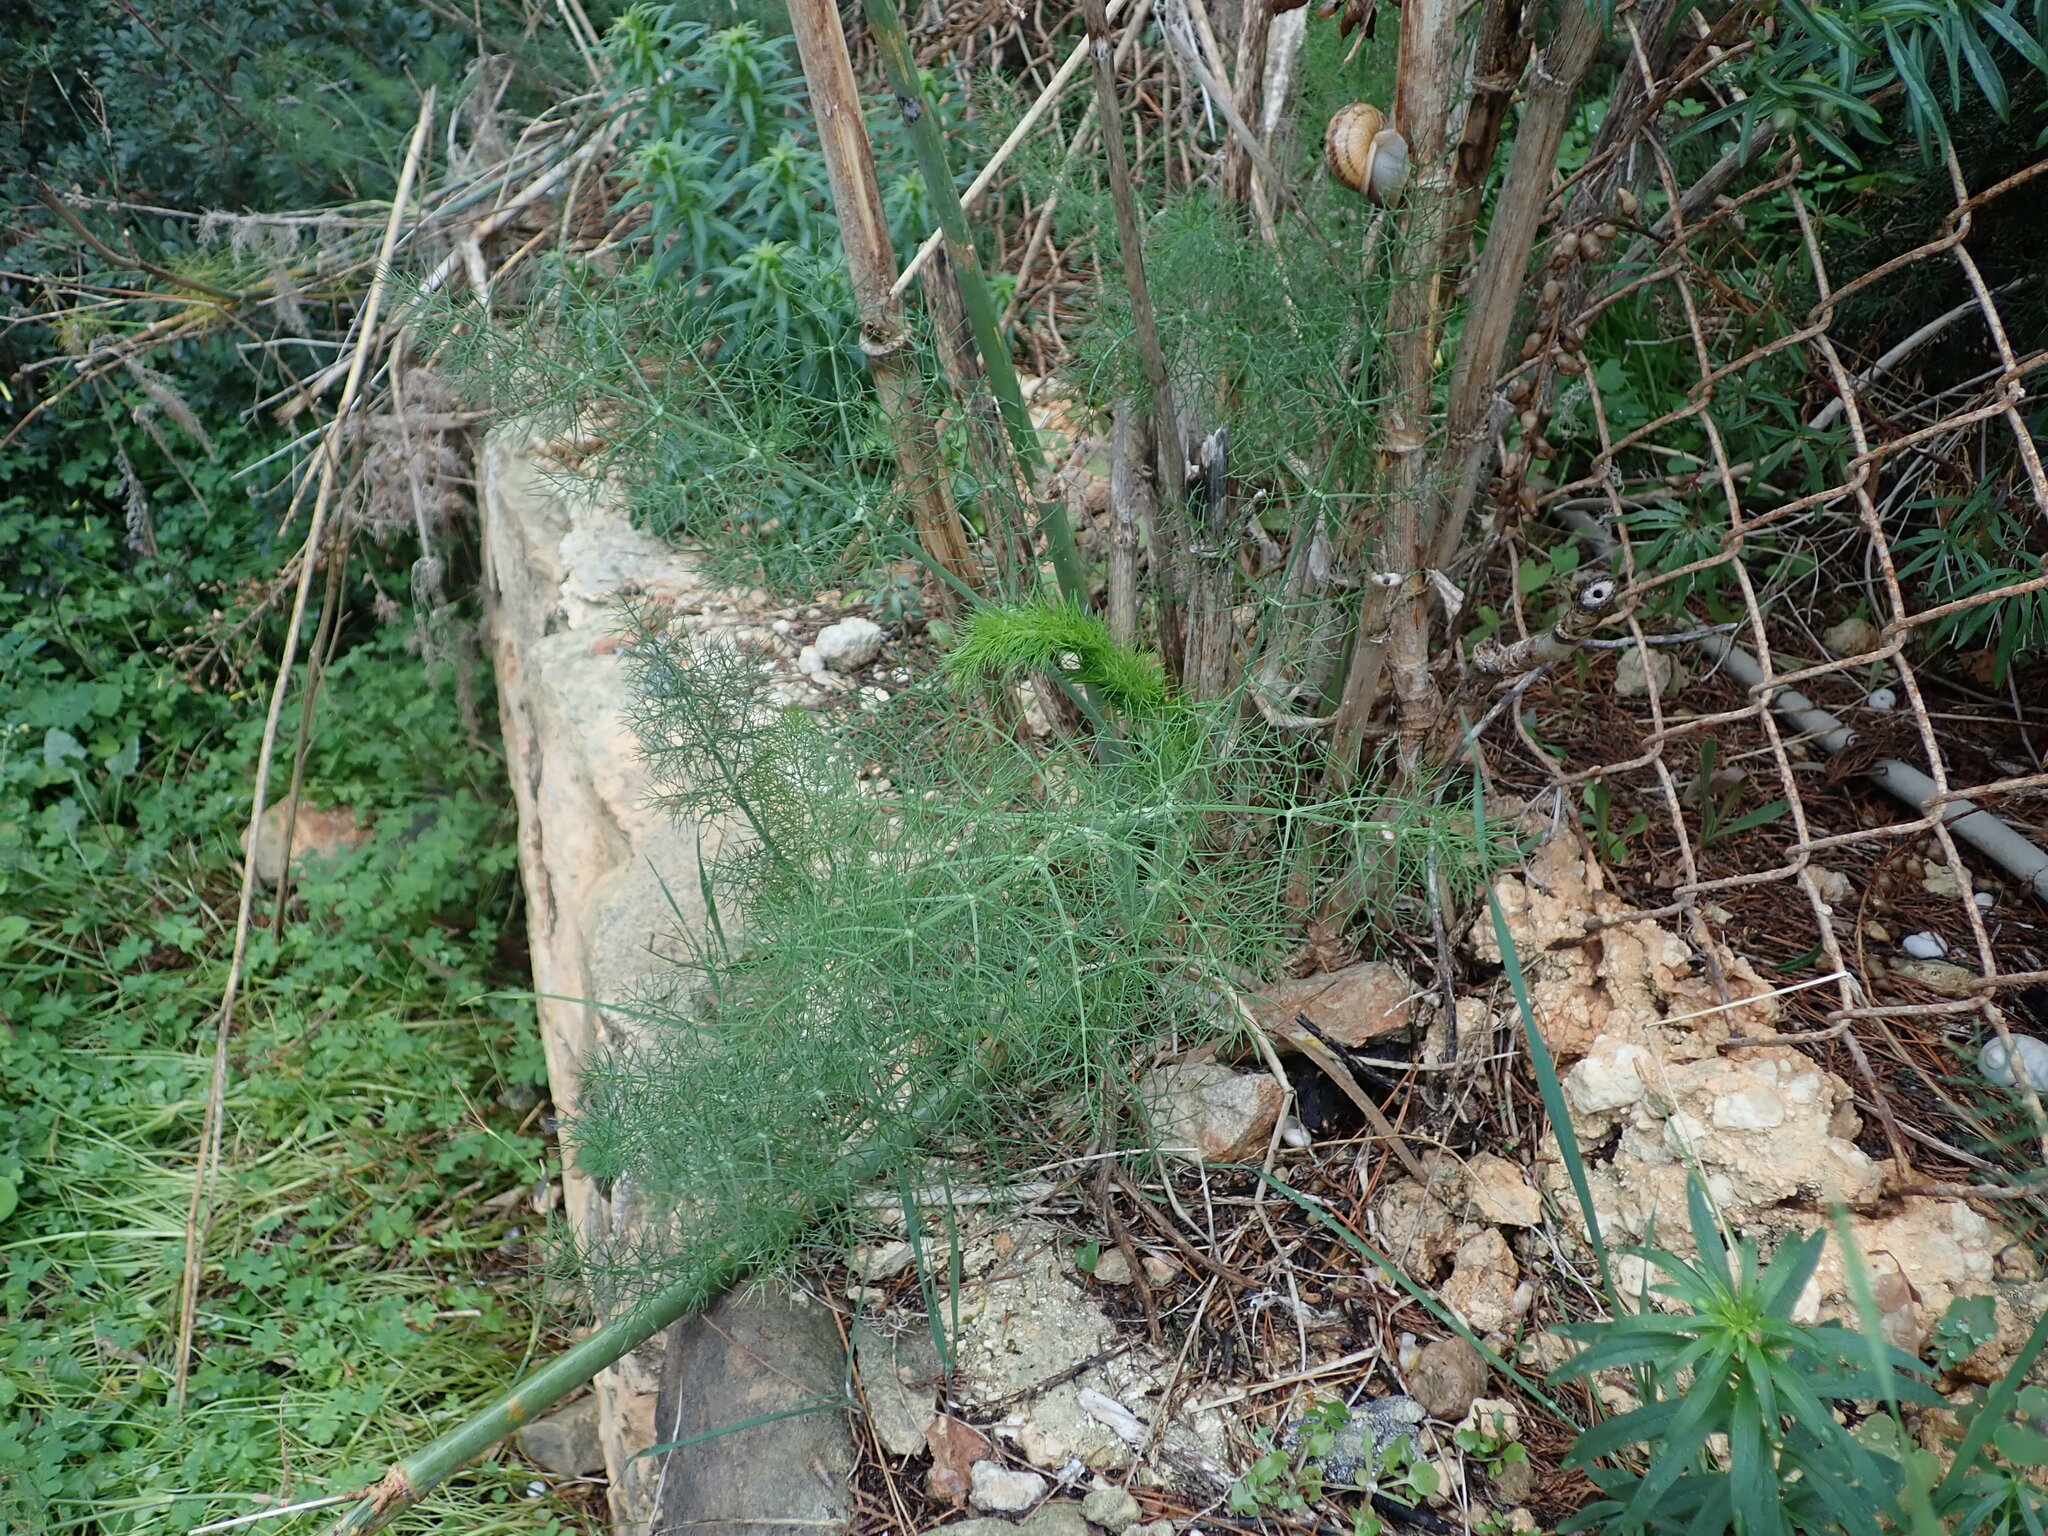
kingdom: Plantae
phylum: Tracheophyta
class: Magnoliopsida
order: Apiales
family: Apiaceae
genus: Foeniculum
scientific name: Foeniculum vulgare
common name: Fennel
